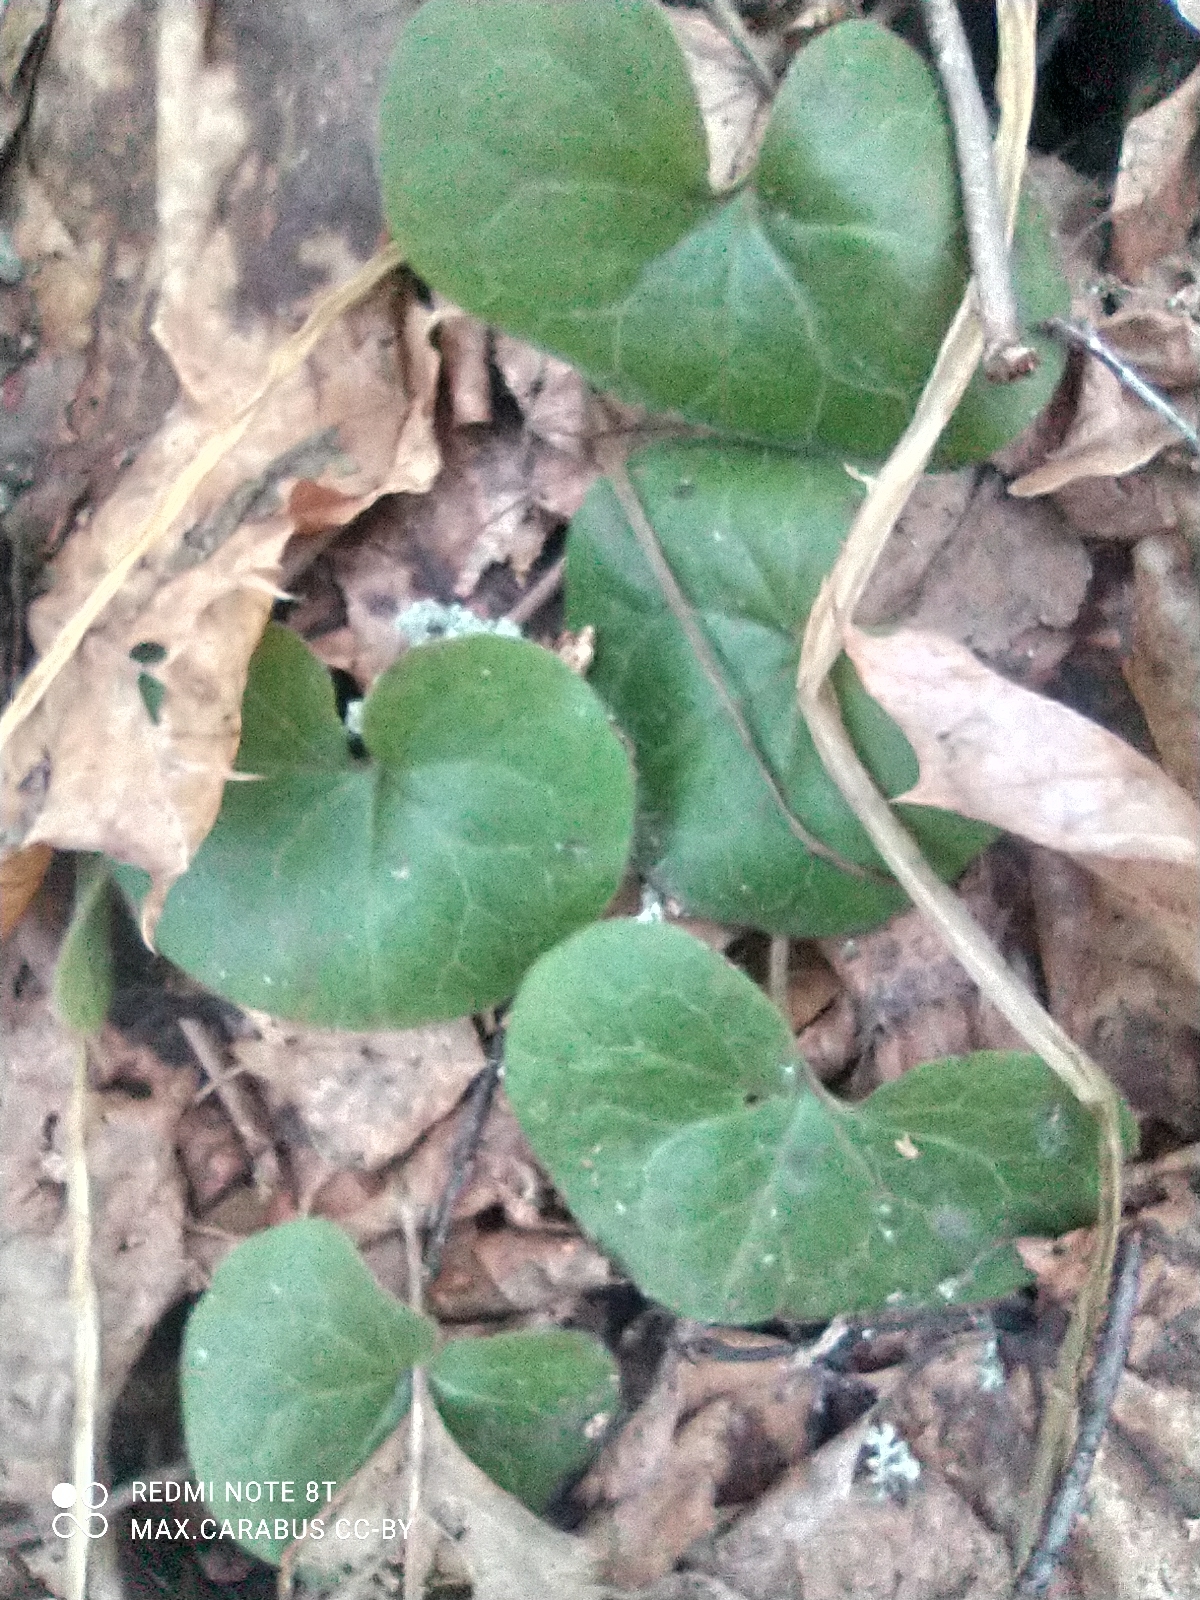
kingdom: Plantae
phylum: Tracheophyta
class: Magnoliopsida
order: Piperales
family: Aristolochiaceae
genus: Asarum
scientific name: Asarum europaeum
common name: Asarabacca
